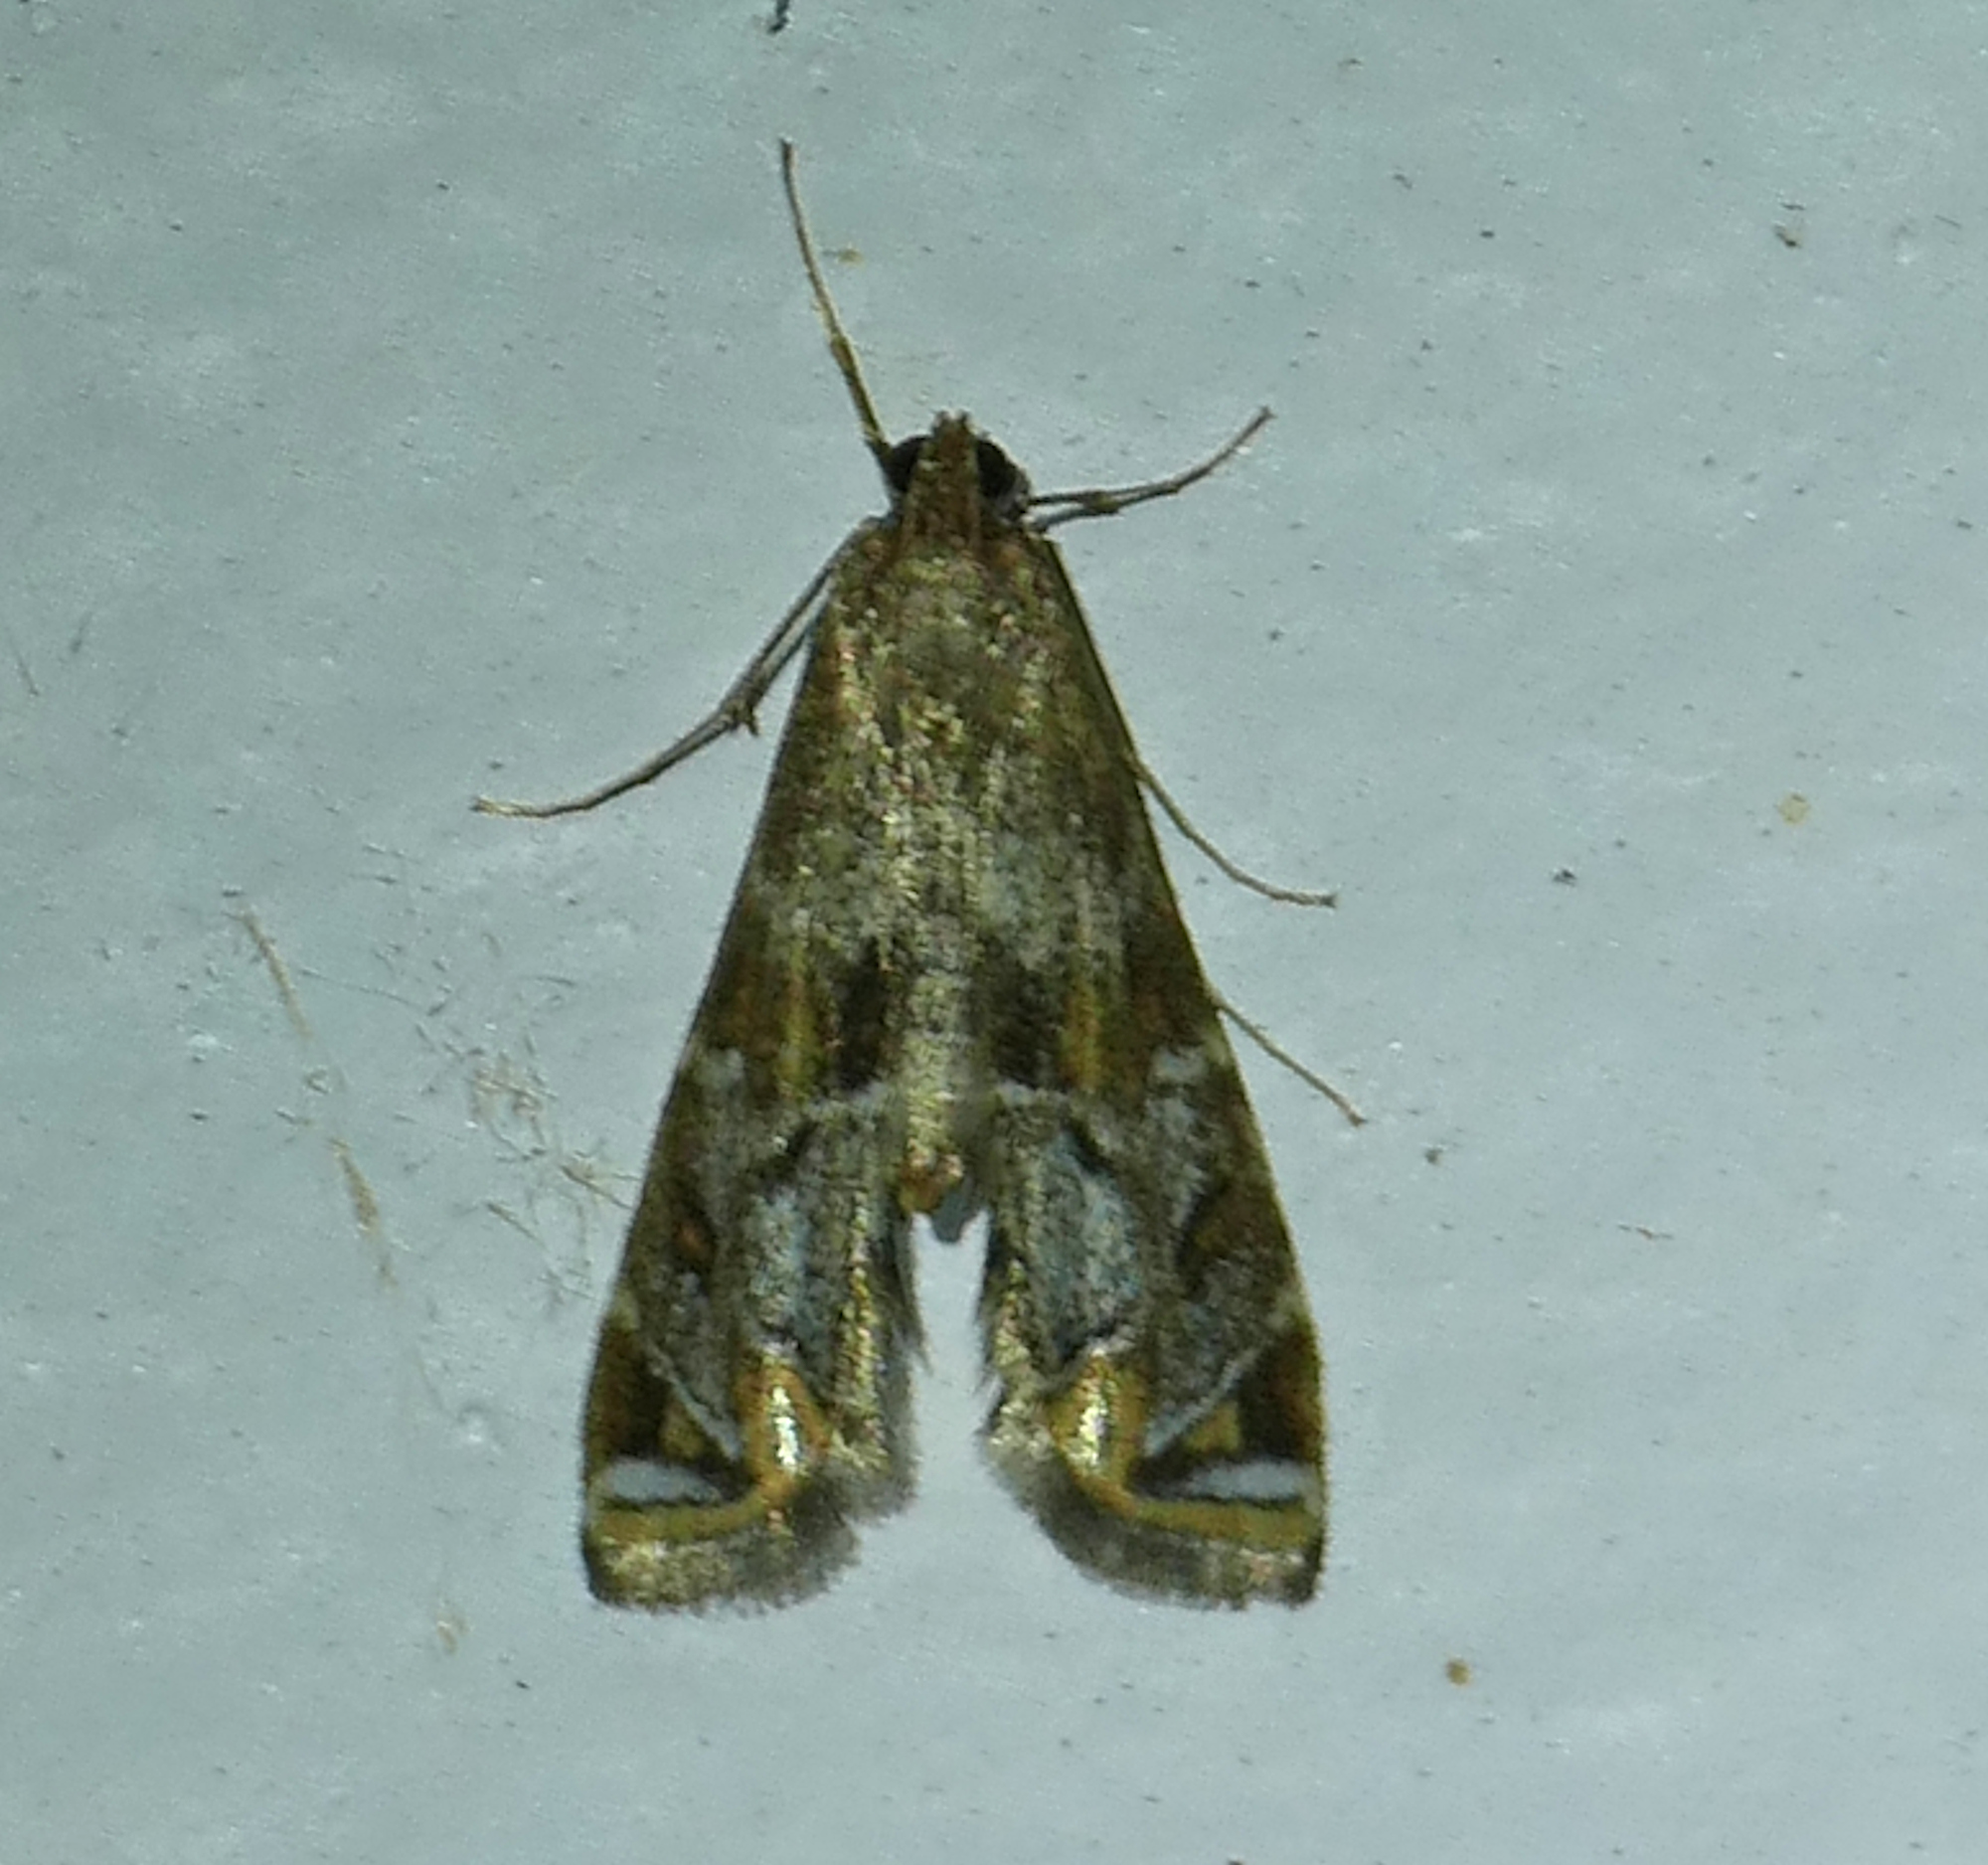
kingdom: Animalia
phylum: Arthropoda
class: Insecta
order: Lepidoptera
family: Crambidae
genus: Petrophila
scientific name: Petrophila longipennis
